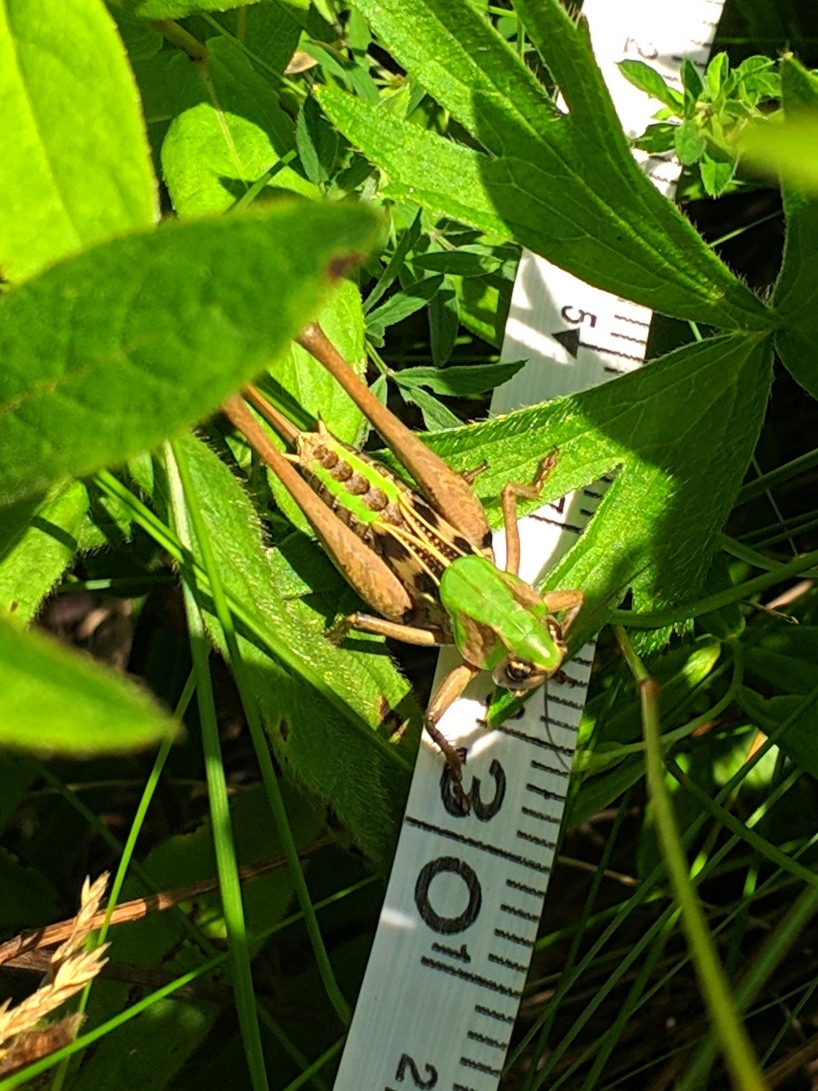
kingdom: Animalia
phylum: Arthropoda
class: Insecta
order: Orthoptera
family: Tettigoniidae
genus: Decticus
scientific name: Decticus verrucivorus
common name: Wart-biter
